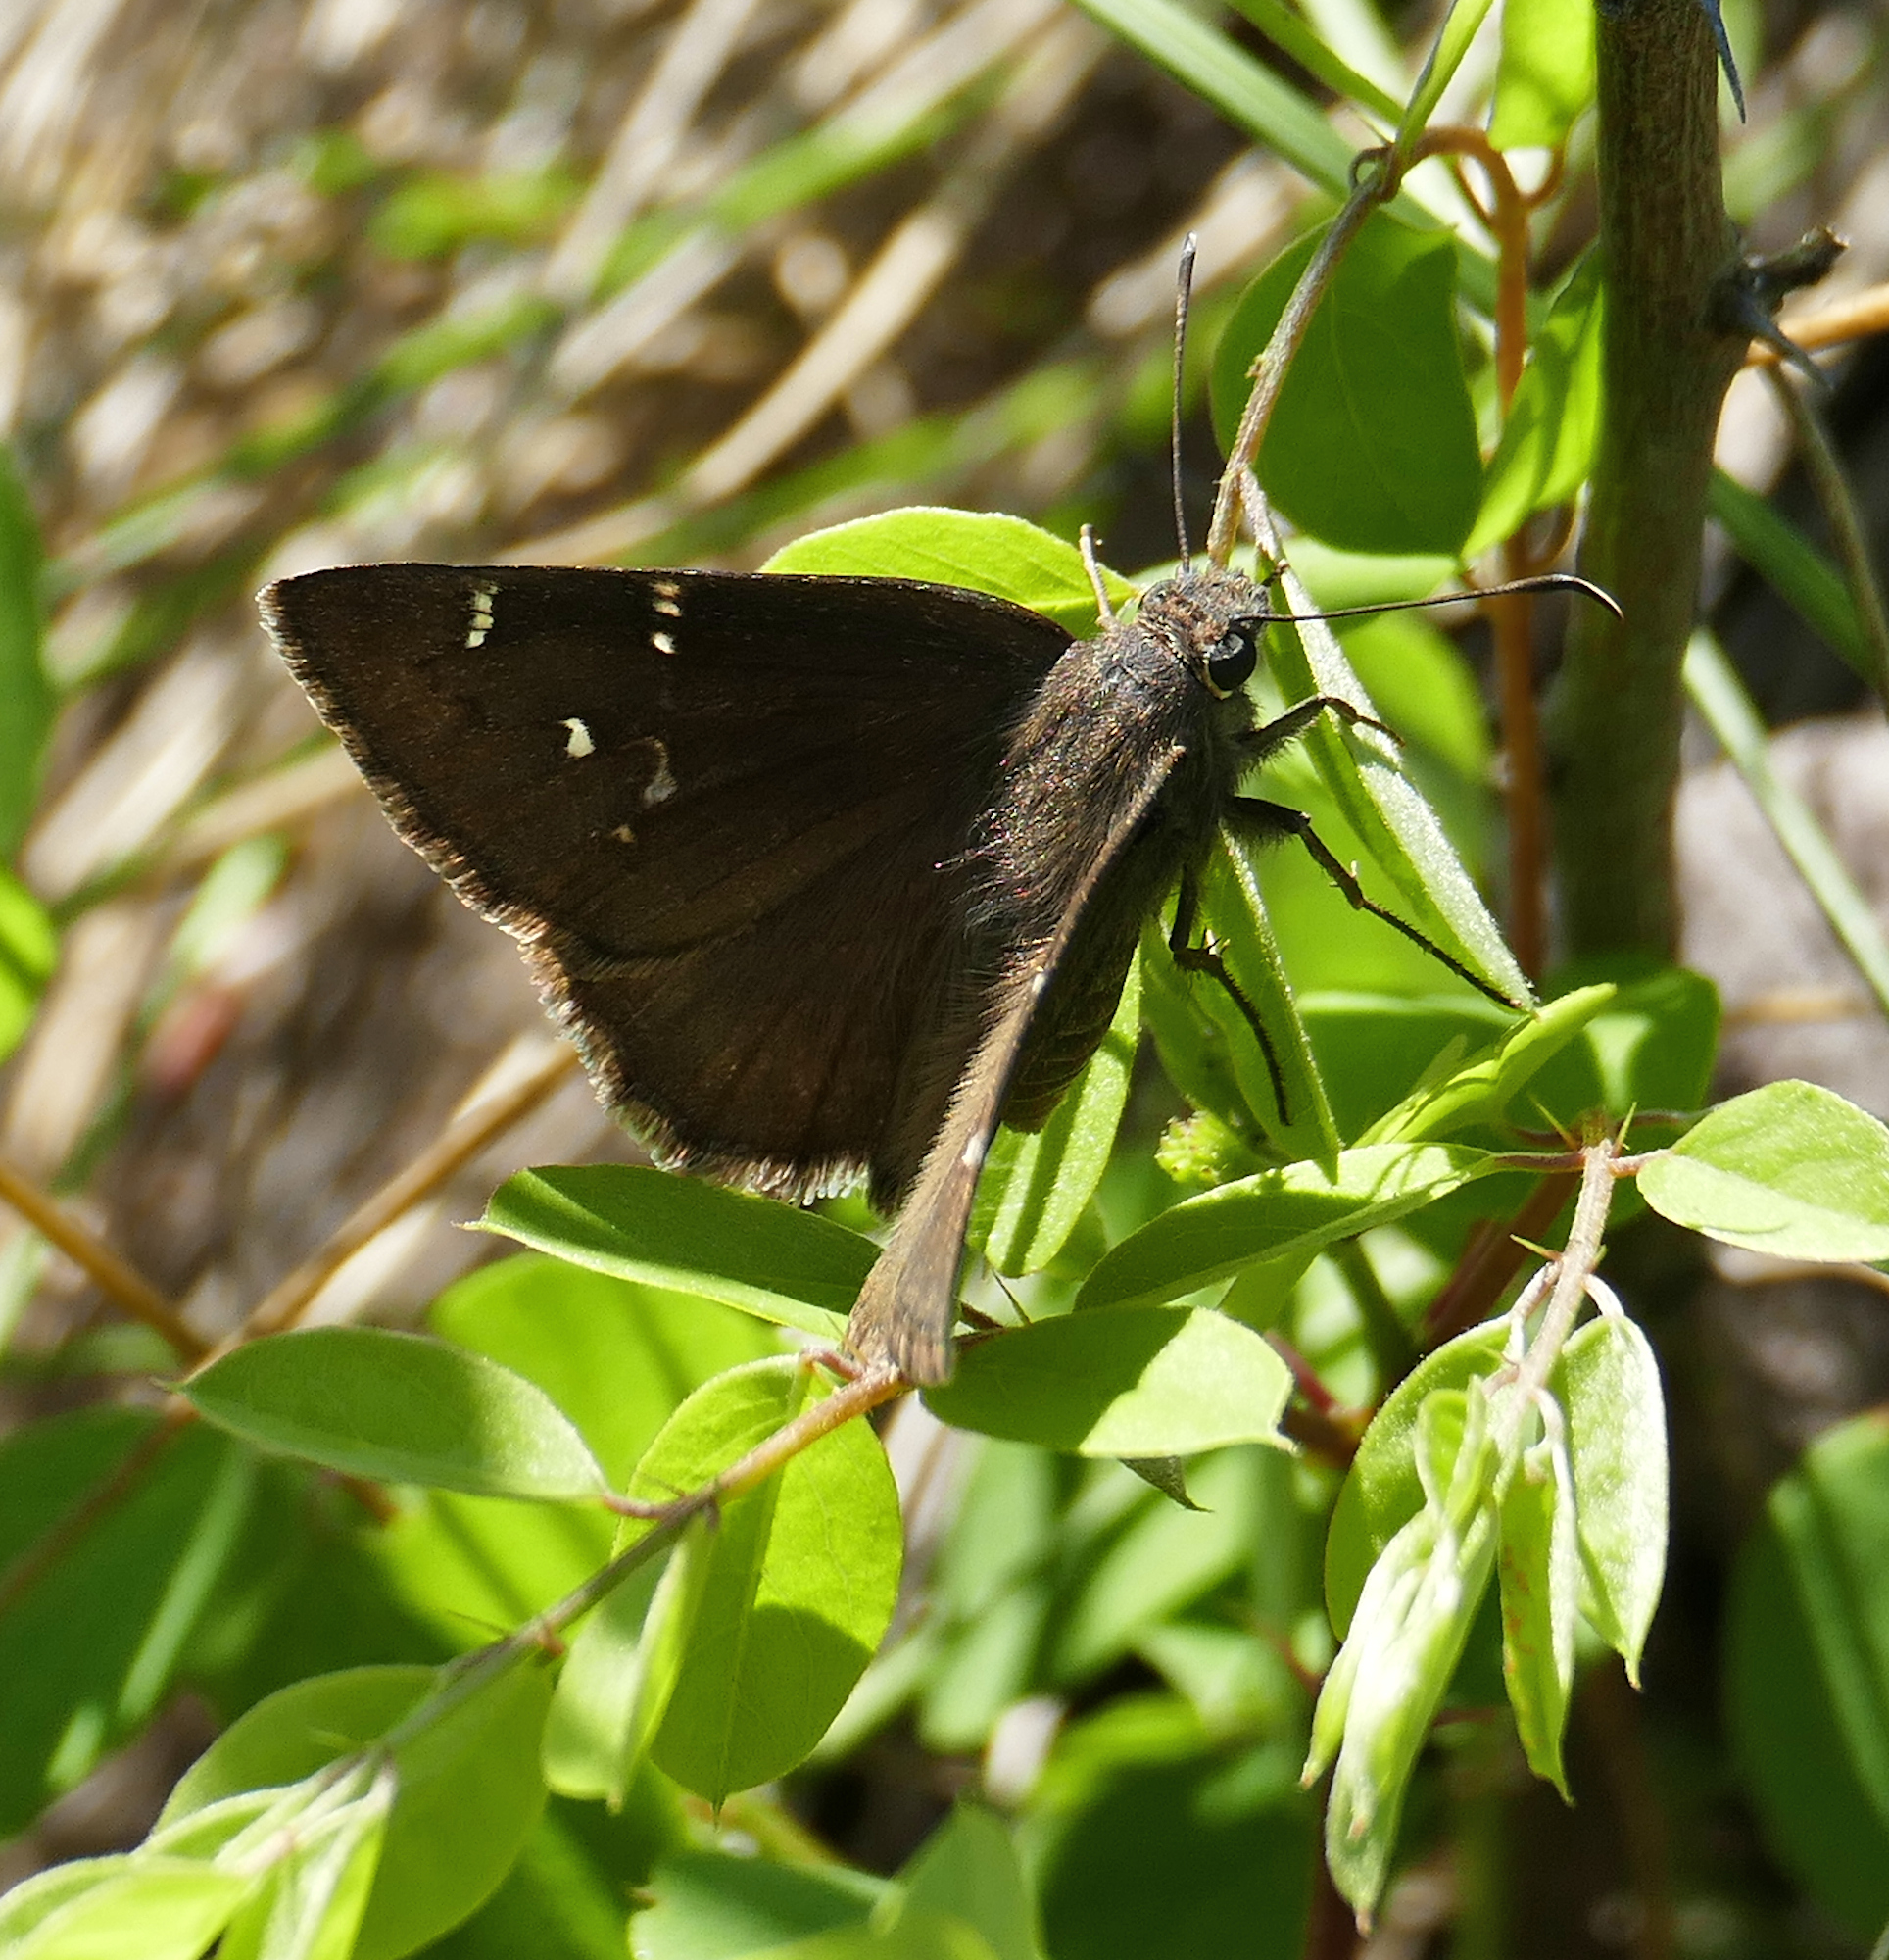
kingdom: Animalia
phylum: Arthropoda
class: Insecta
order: Lepidoptera
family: Hesperiidae
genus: Thorybes
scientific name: Thorybes pylades
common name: Northern cloudywing
